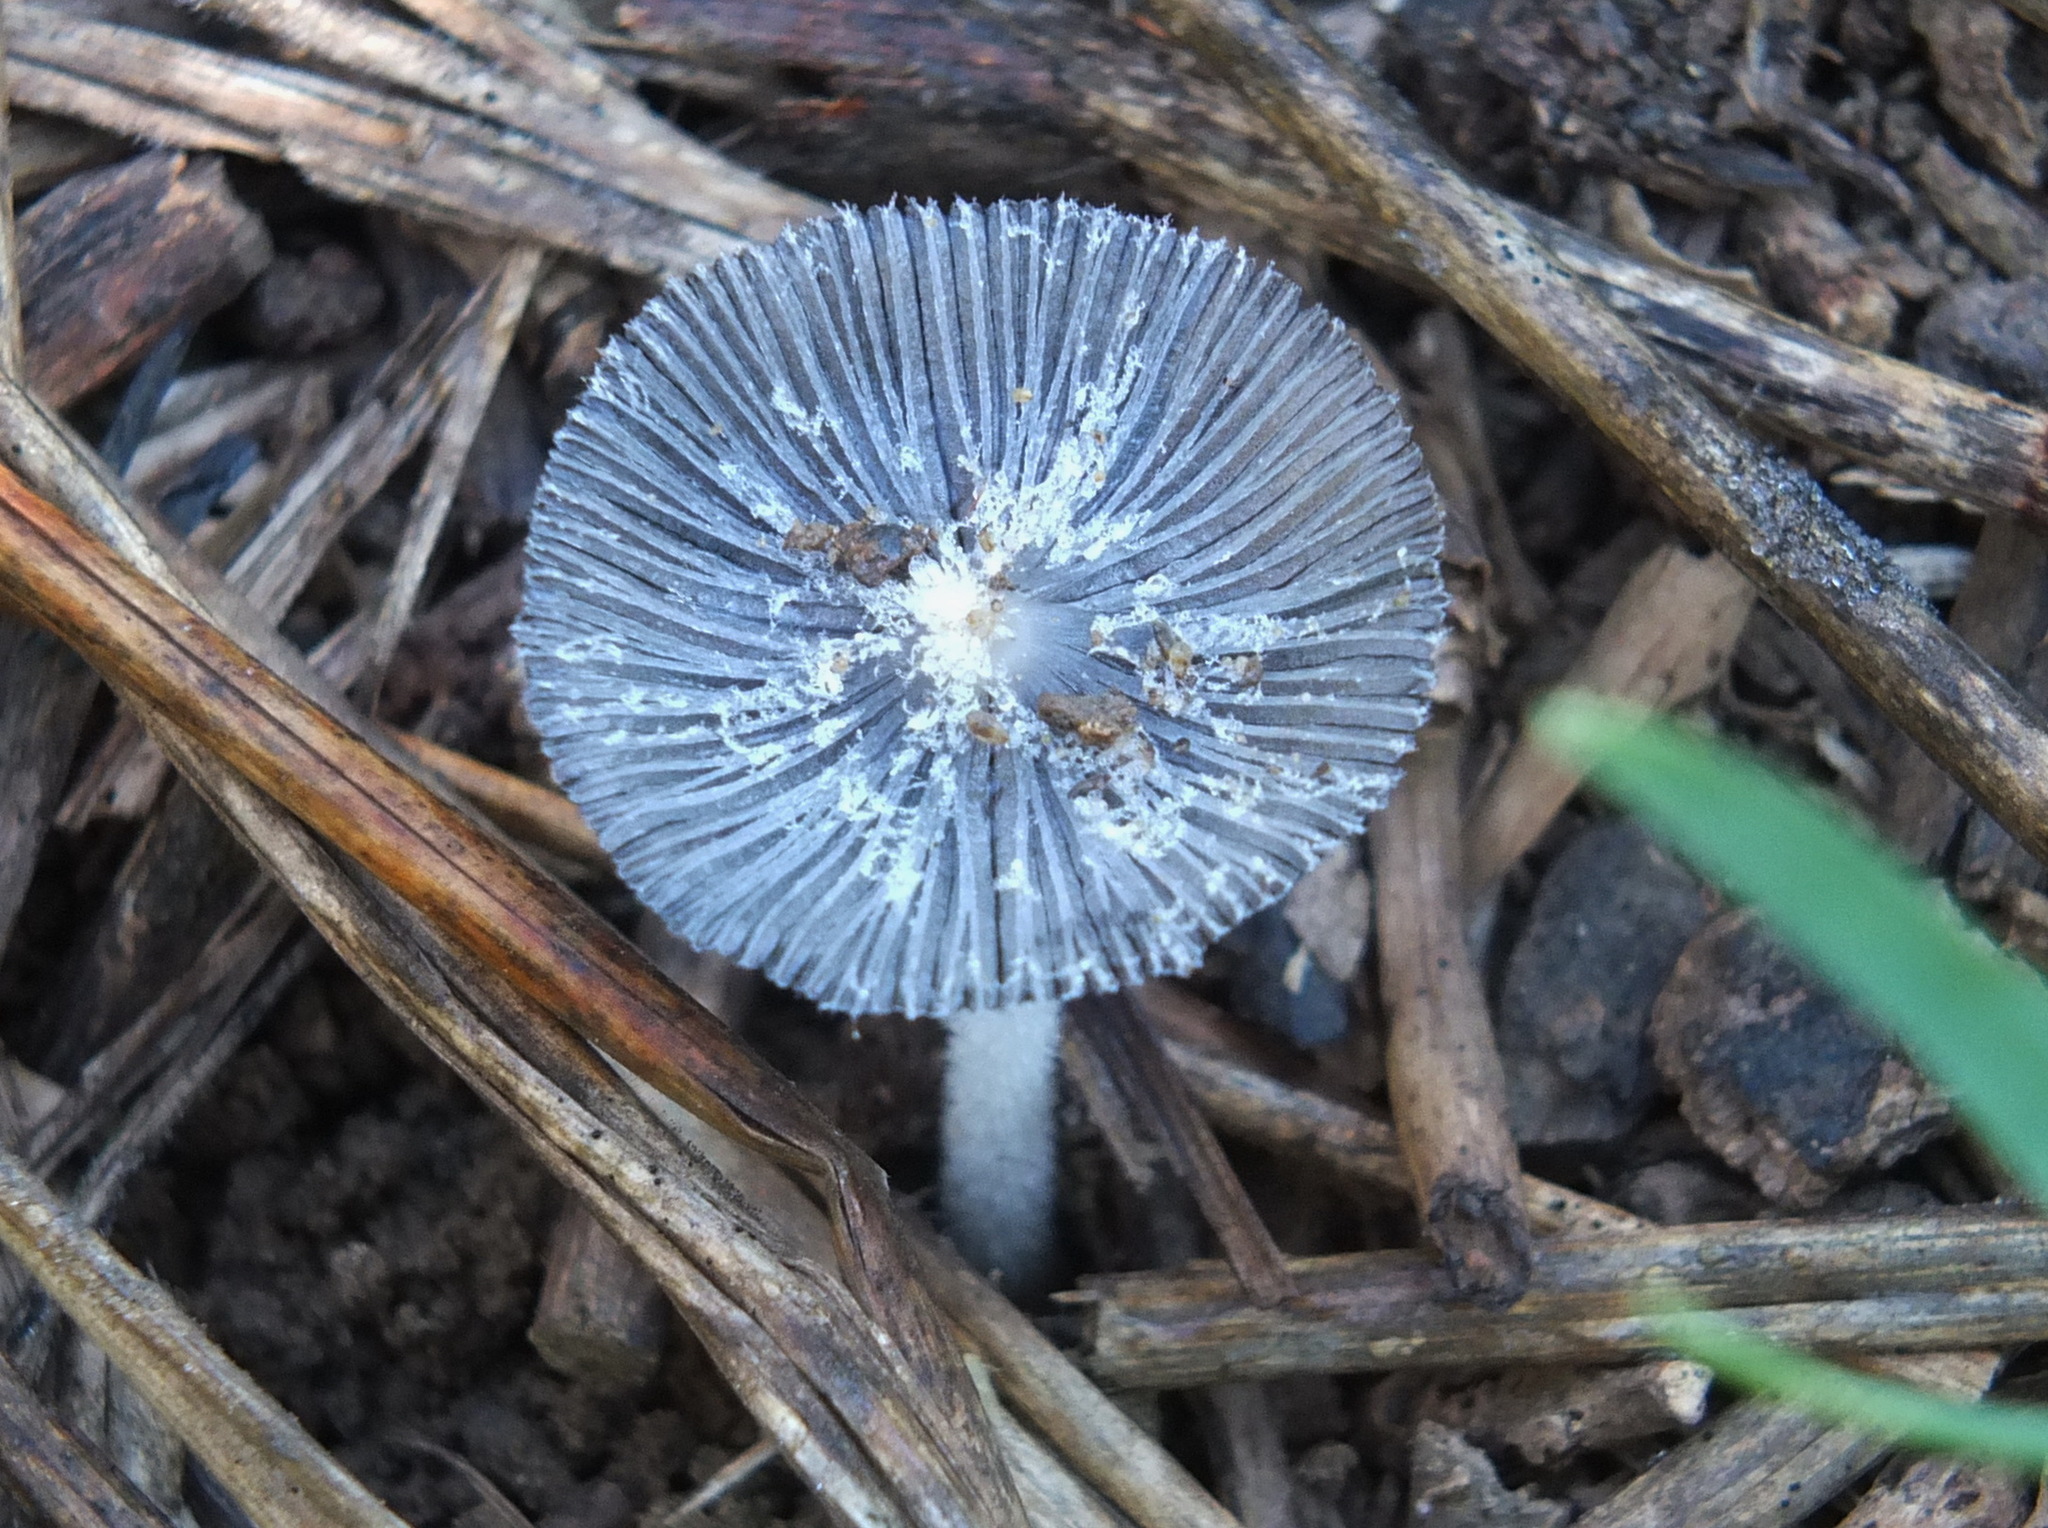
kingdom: Fungi
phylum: Basidiomycota
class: Agaricomycetes
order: Agaricales
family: Psathyrellaceae
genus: Coprinopsis
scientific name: Coprinopsis lagopus
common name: Hare'sfoot inkcap
